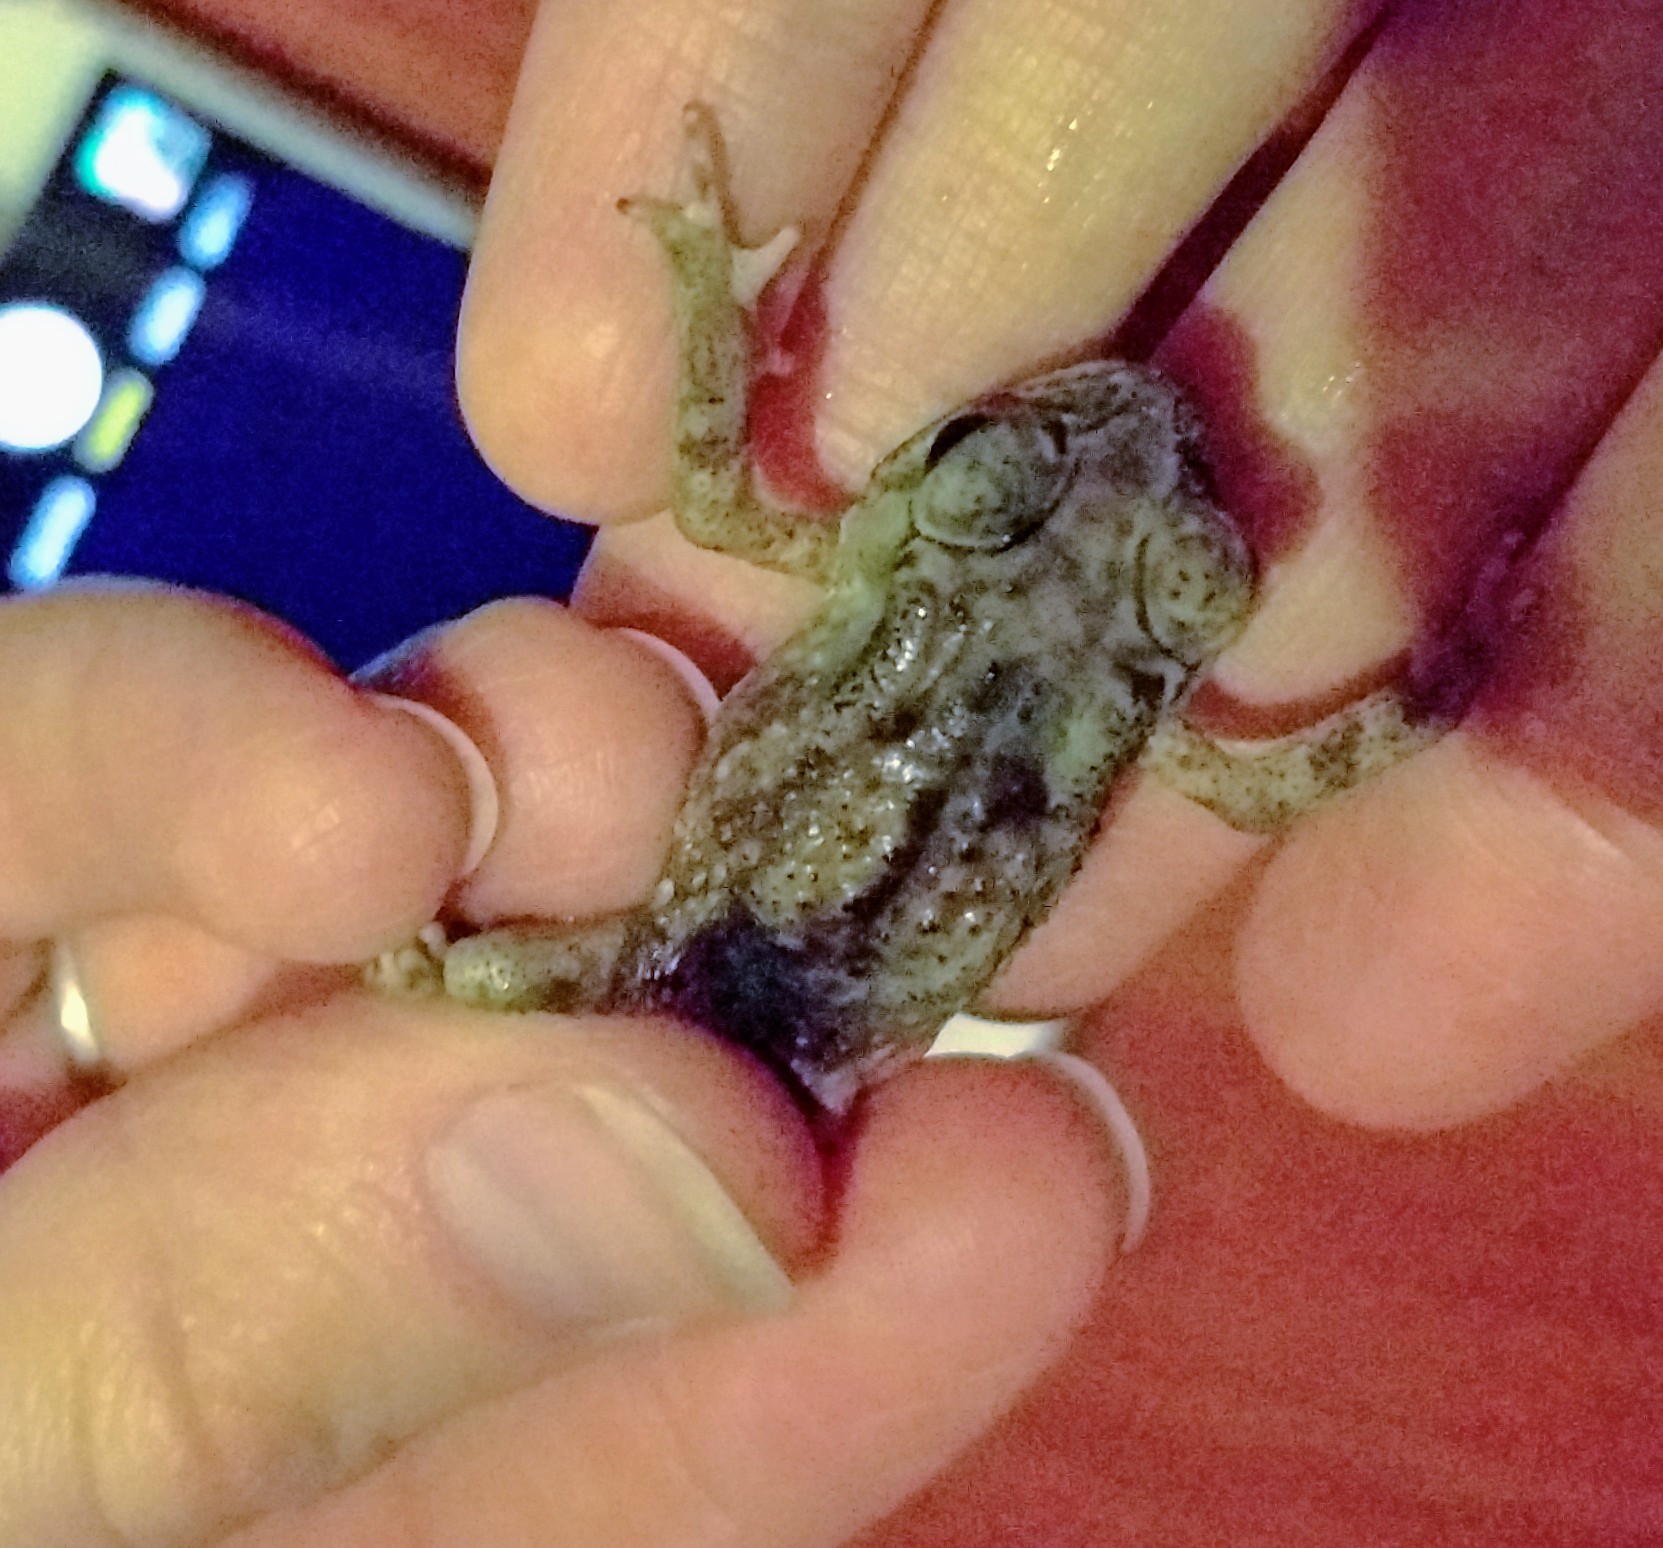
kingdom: Animalia
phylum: Chordata
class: Amphibia
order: Anura
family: Bufonidae
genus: Duttaphrynus
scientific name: Duttaphrynus melanostictus
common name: Common sunda toad
